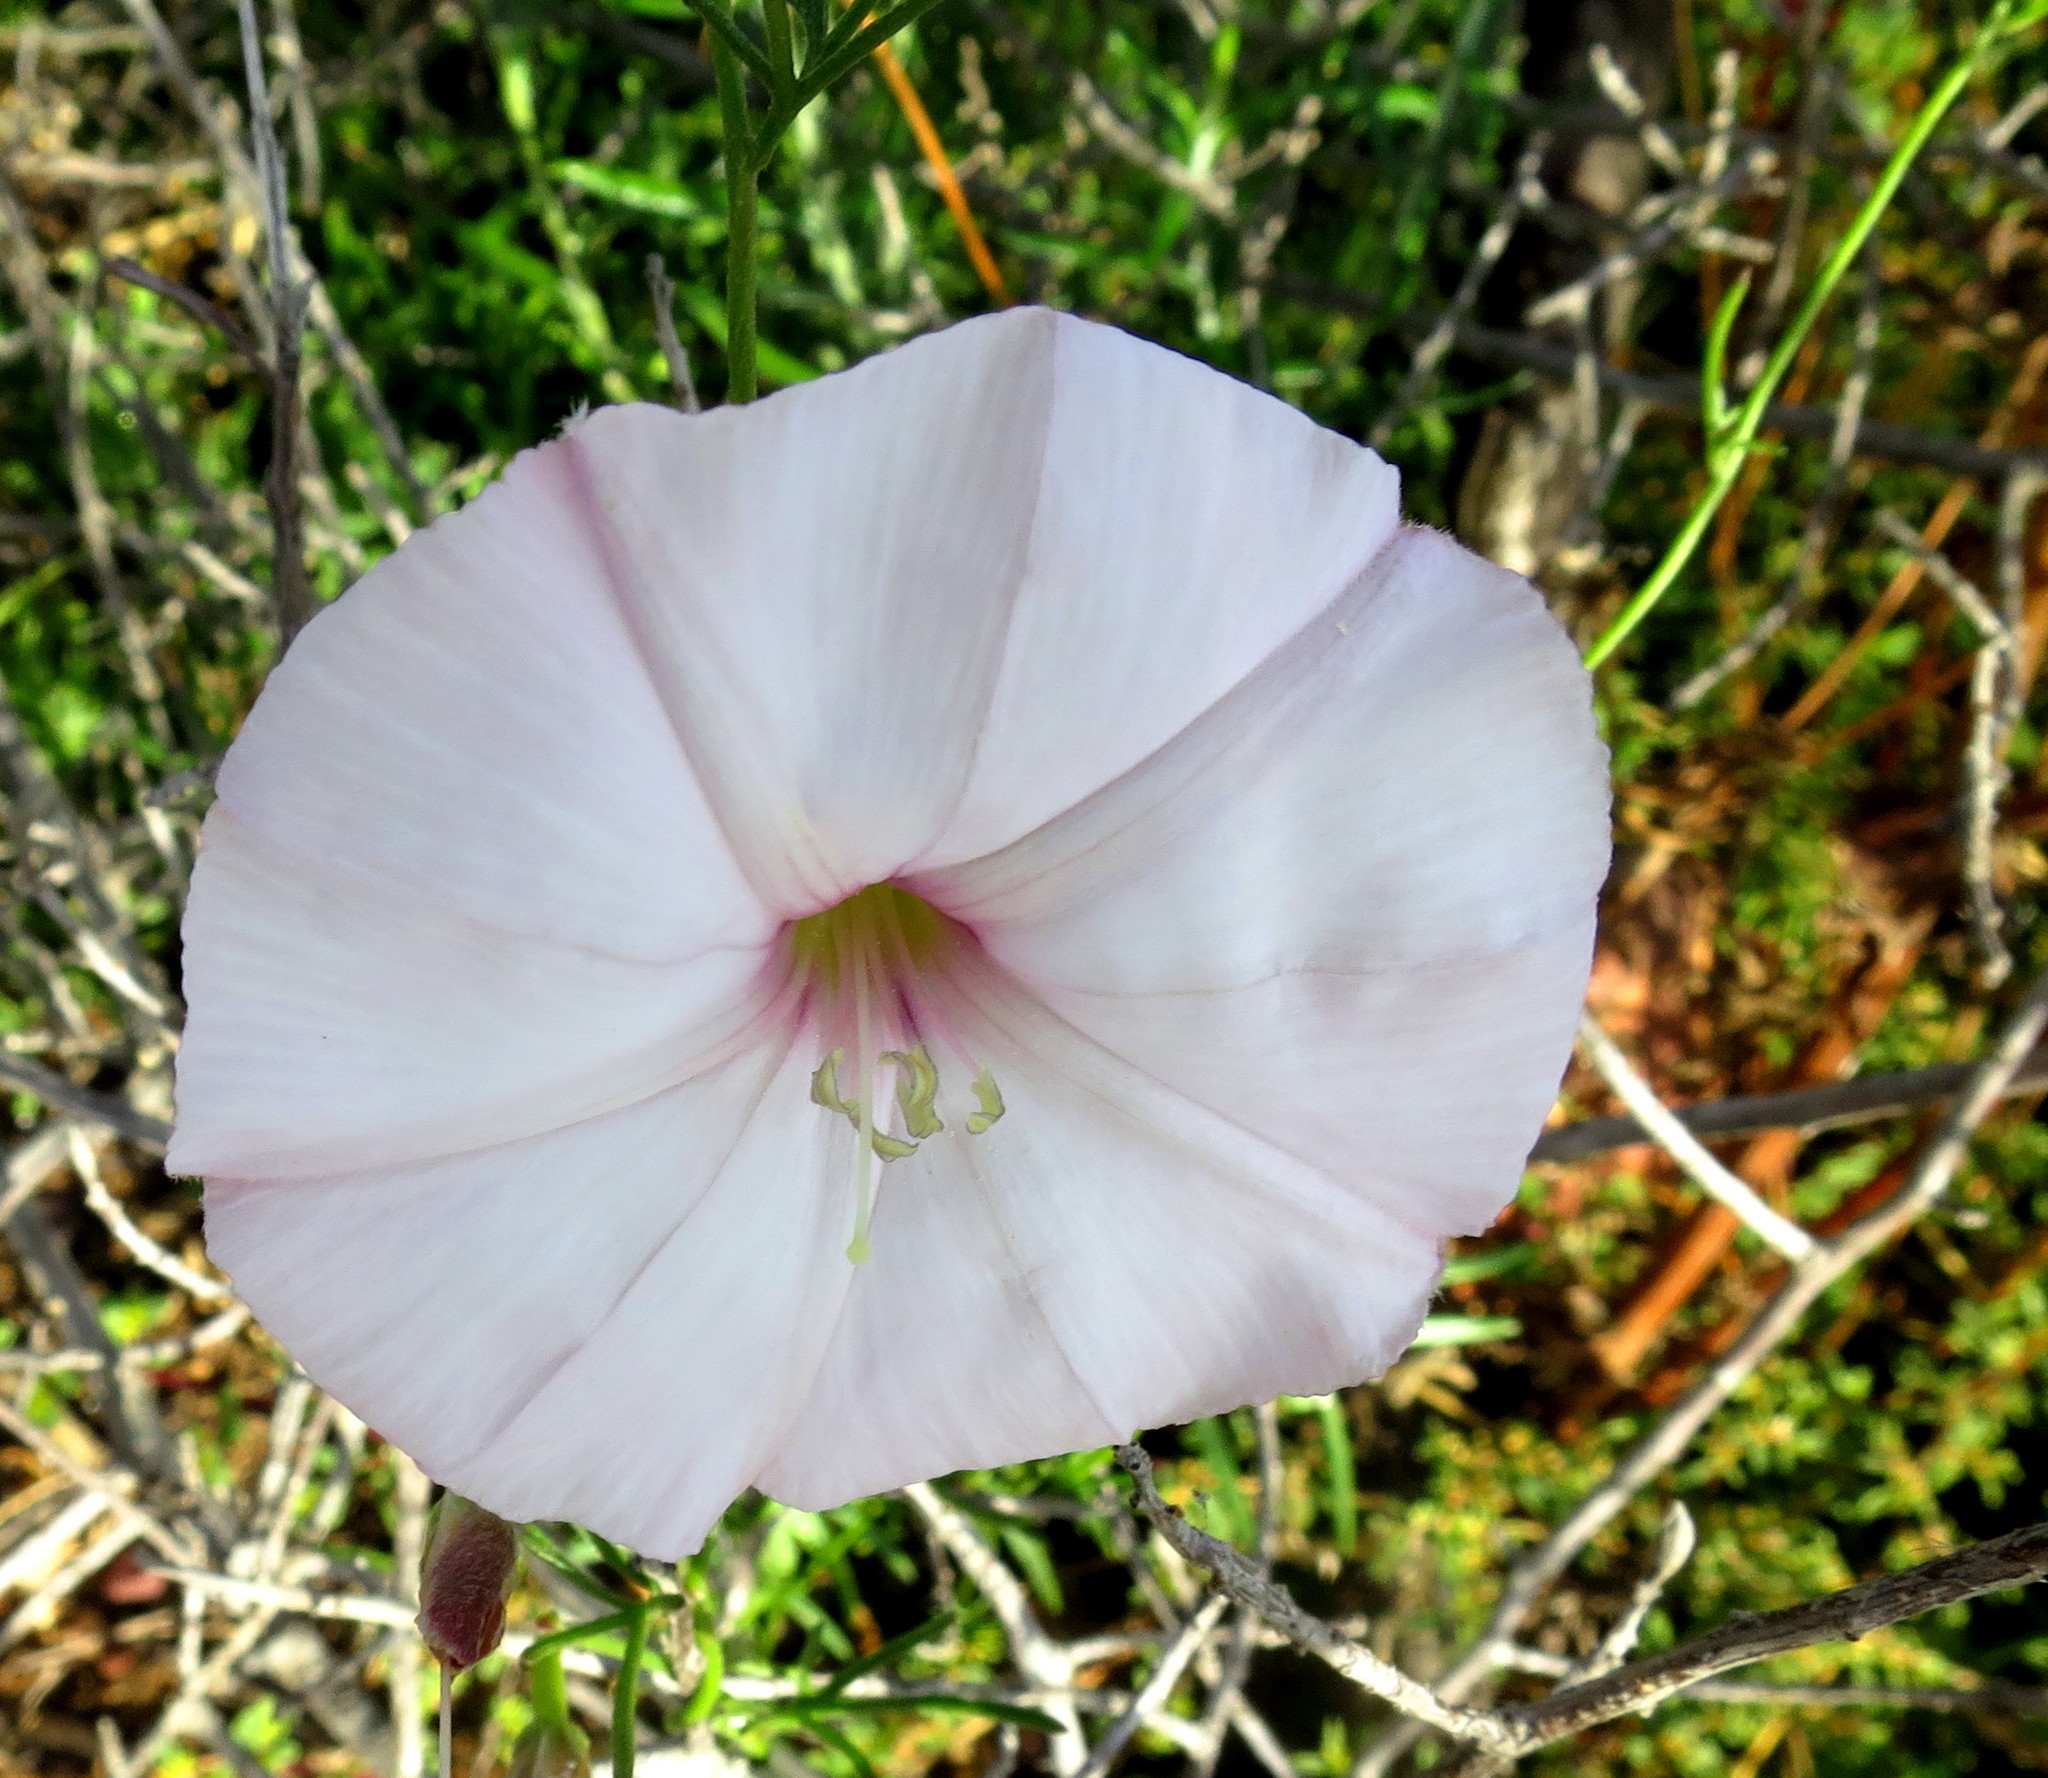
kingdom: Plantae
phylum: Tracheophyta
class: Magnoliopsida
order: Solanales
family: Convolvulaceae
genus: Convolvulus
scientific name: Convolvulus capensis
